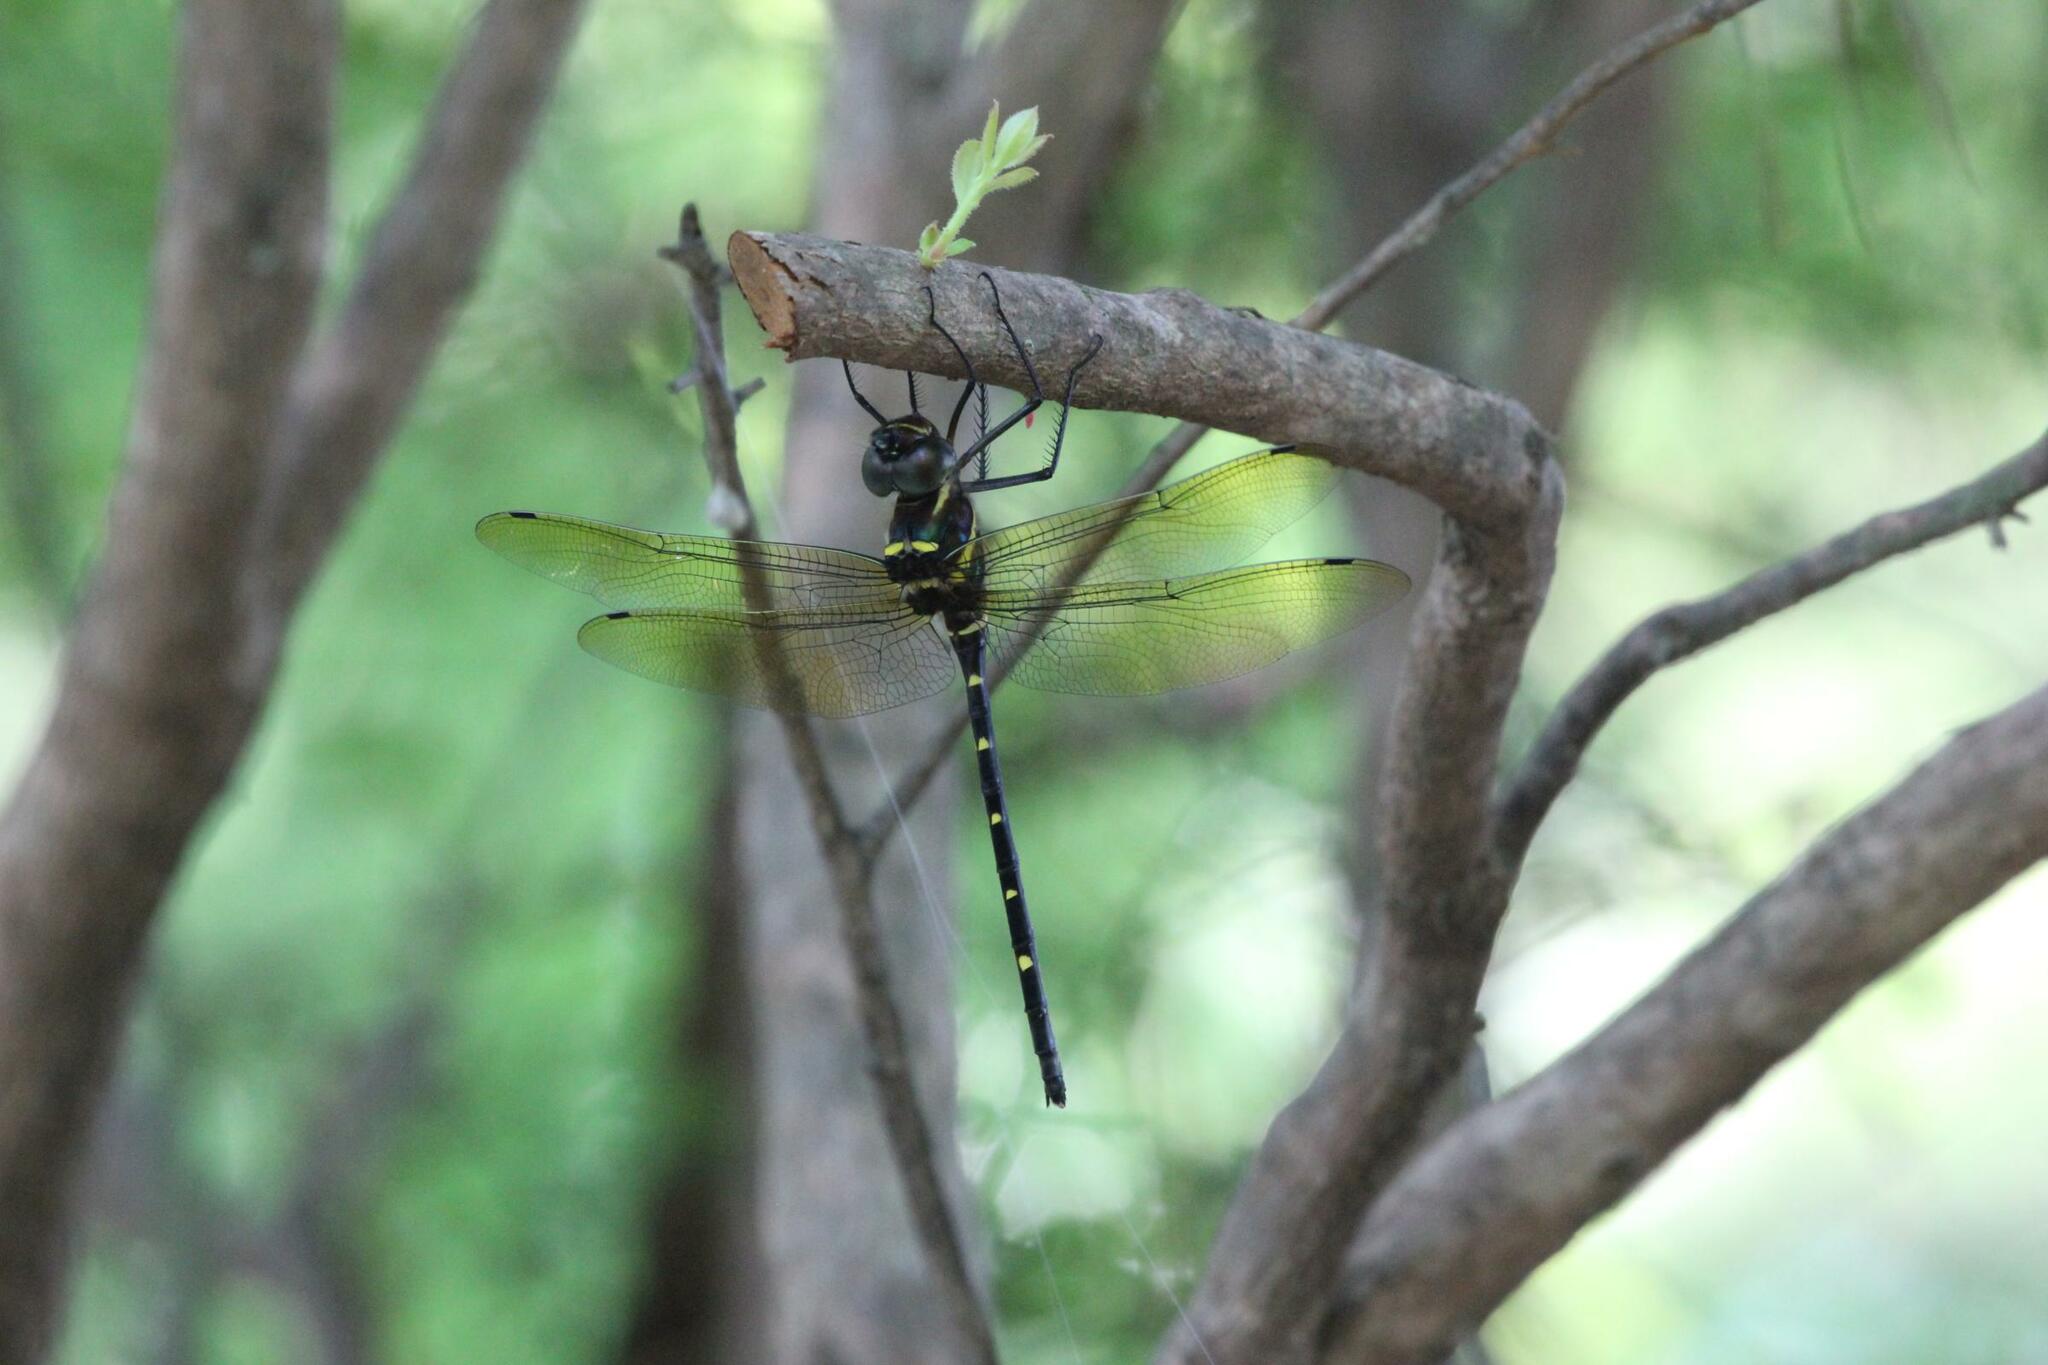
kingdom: Animalia
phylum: Arthropoda
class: Insecta
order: Odonata
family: Macromiidae
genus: Macromia
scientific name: Macromia taeniolata
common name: Royal river cruiser
